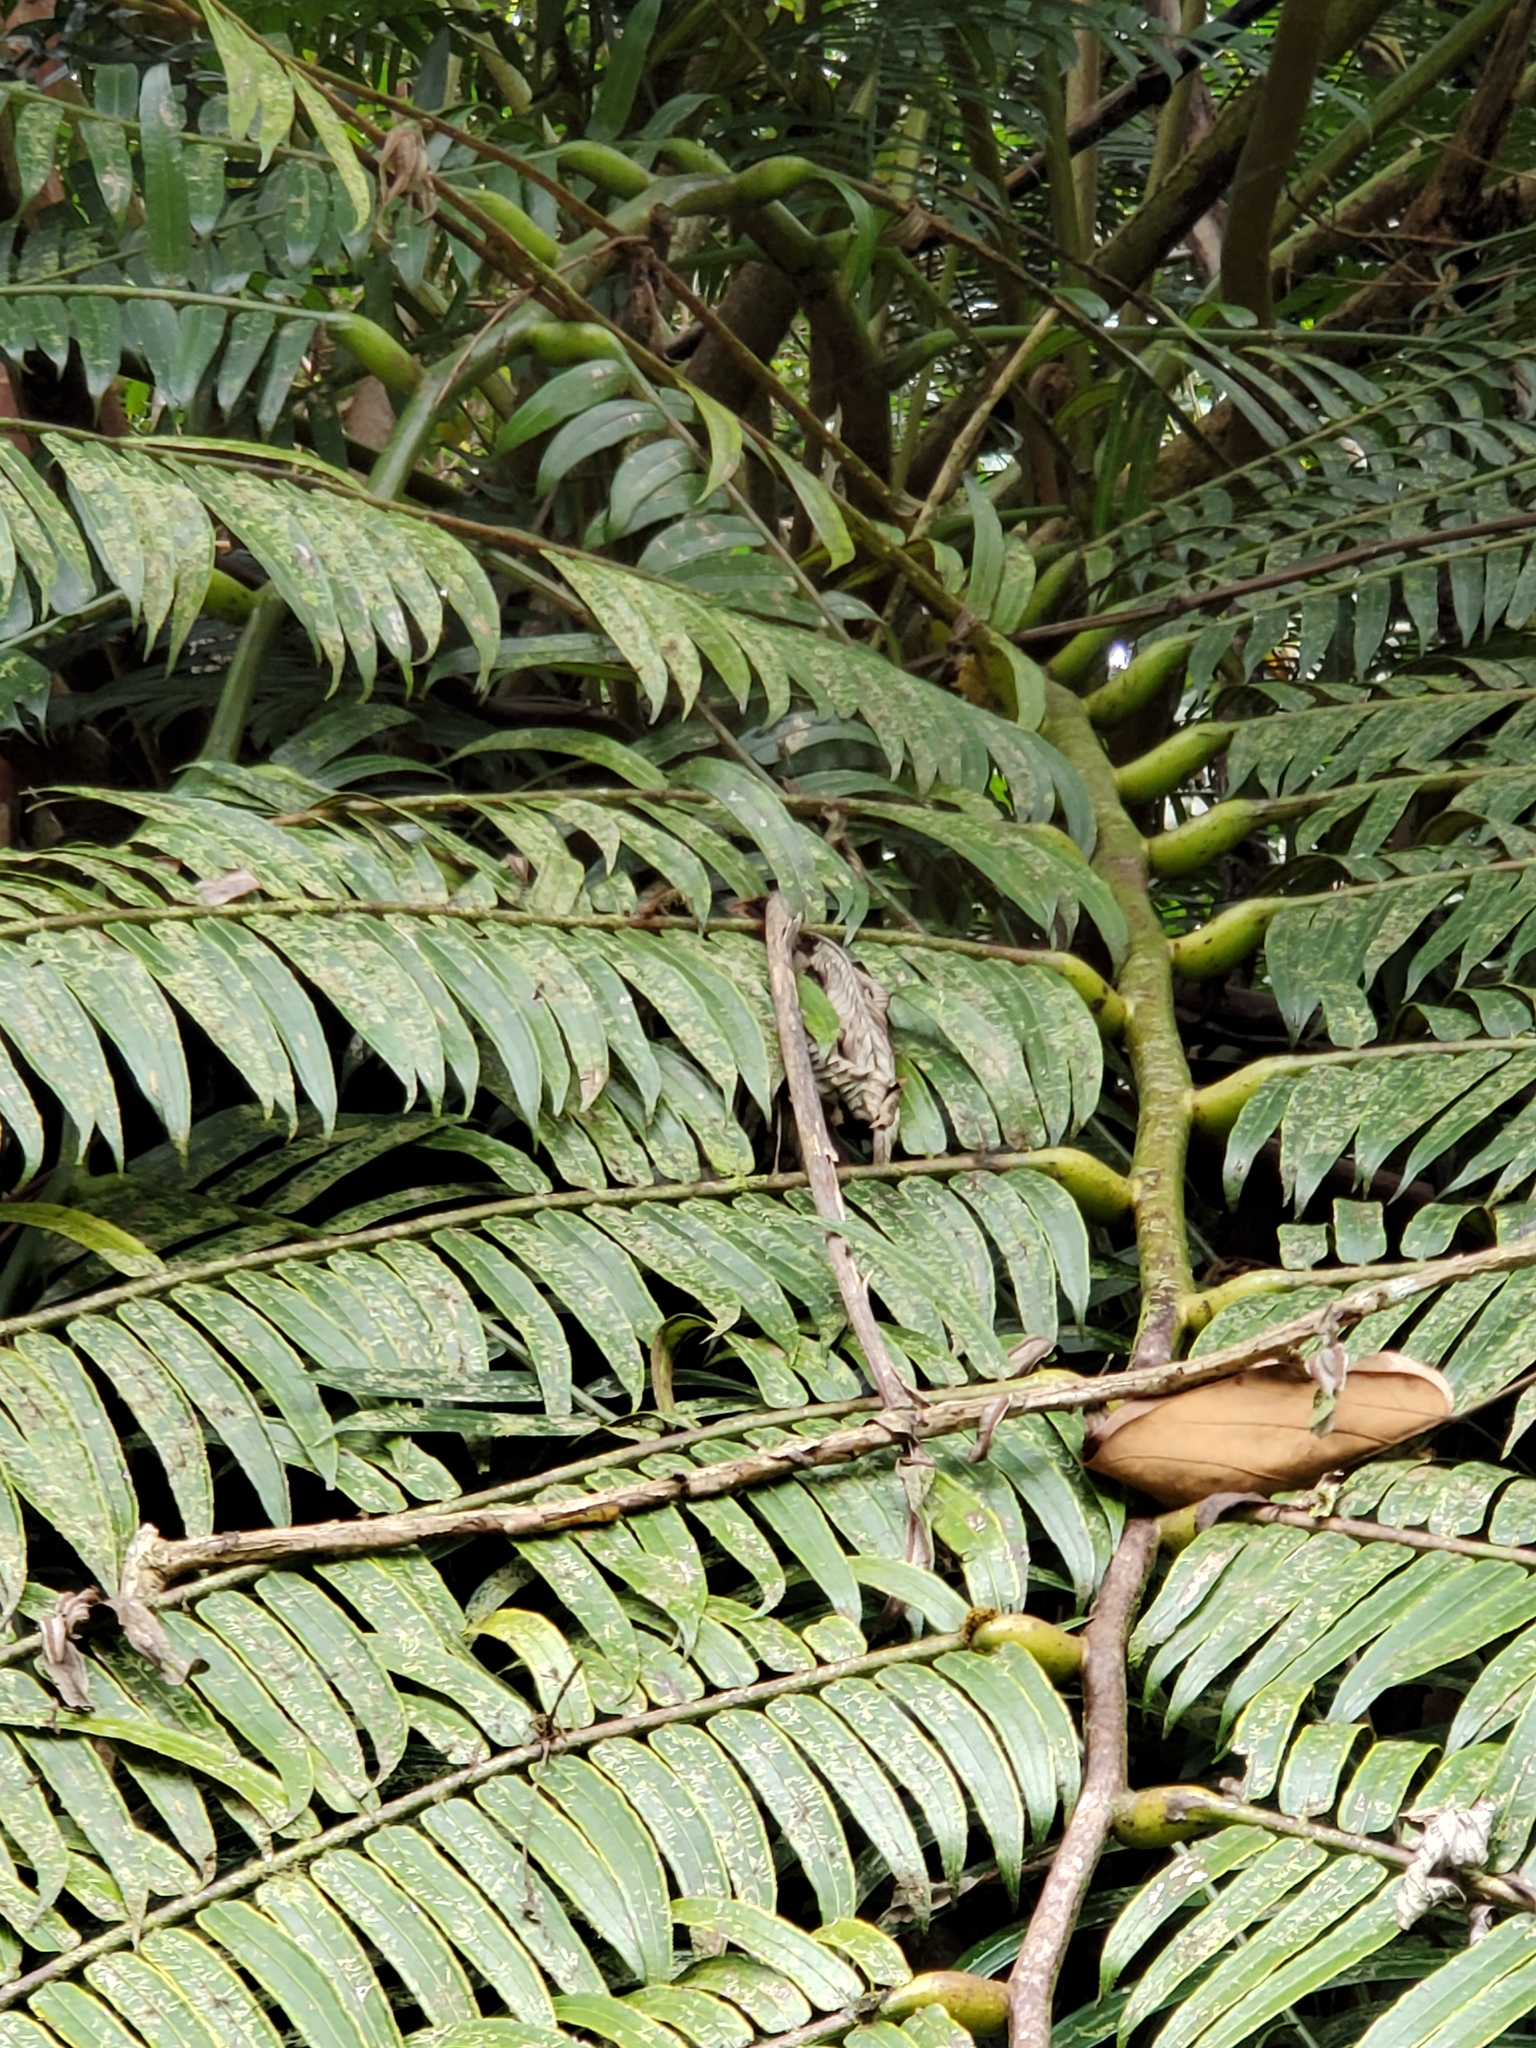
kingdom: Plantae
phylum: Tracheophyta
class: Polypodiopsida
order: Marattiales
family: Marattiaceae
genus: Angiopteris
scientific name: Angiopteris evecta
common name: Mule's-foot fern
